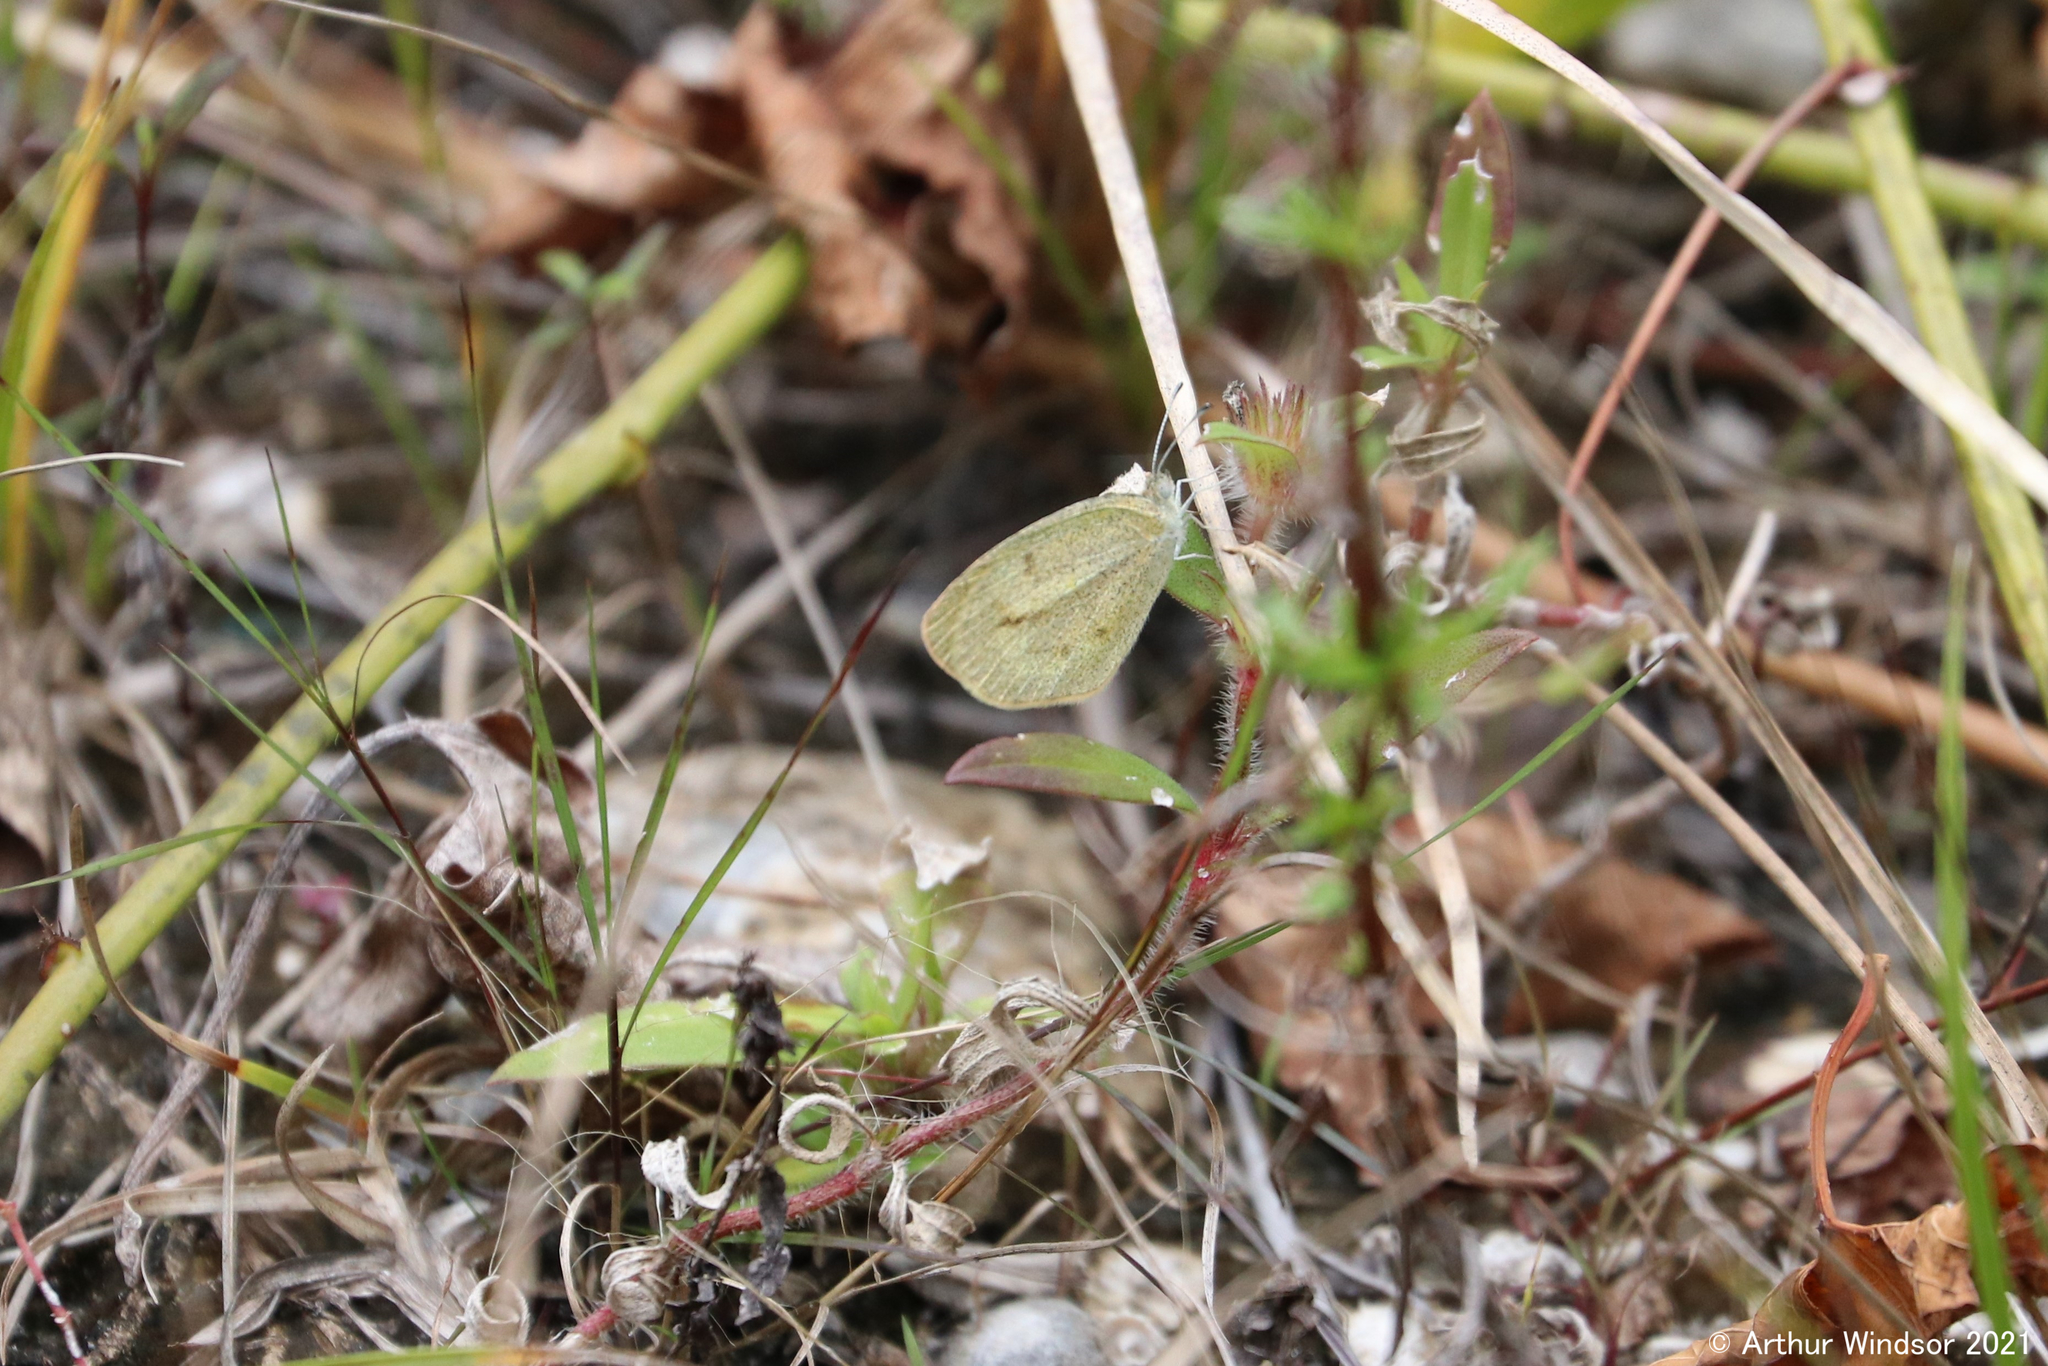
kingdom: Animalia
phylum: Arthropoda
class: Insecta
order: Lepidoptera
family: Pieridae
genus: Eurema
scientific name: Eurema daira
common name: Barred sulphur
